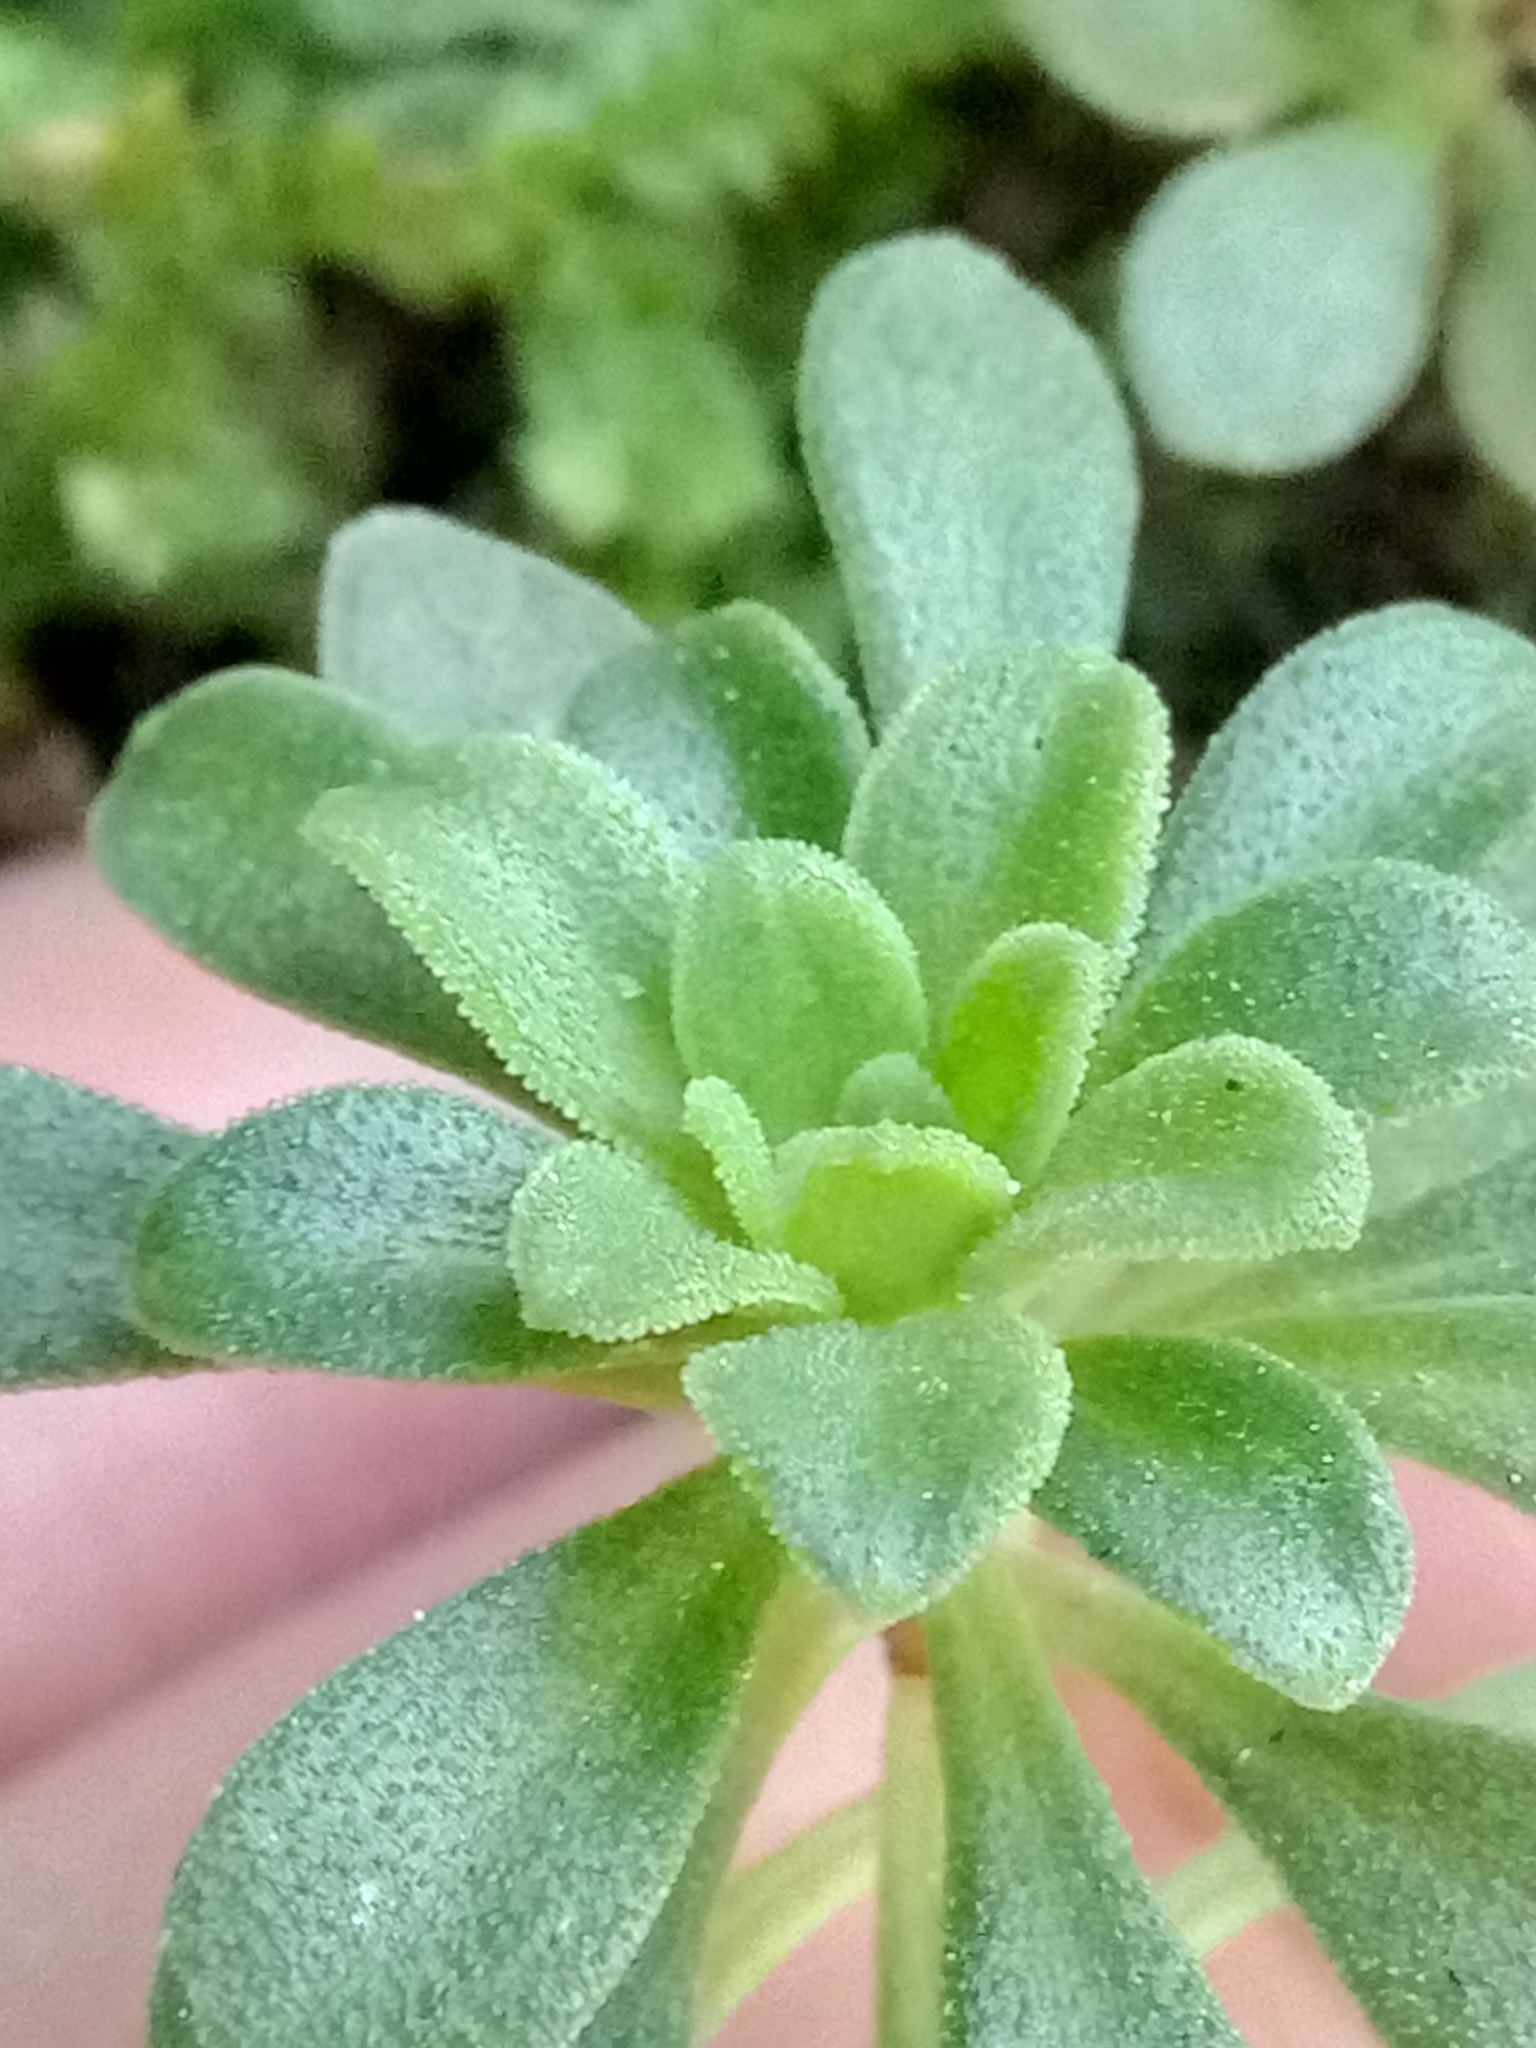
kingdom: Plantae
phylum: Tracheophyta
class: Magnoliopsida
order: Saxifragales
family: Crassulaceae
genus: Sedum
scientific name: Sedum cepaea
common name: Pink stonecrop
